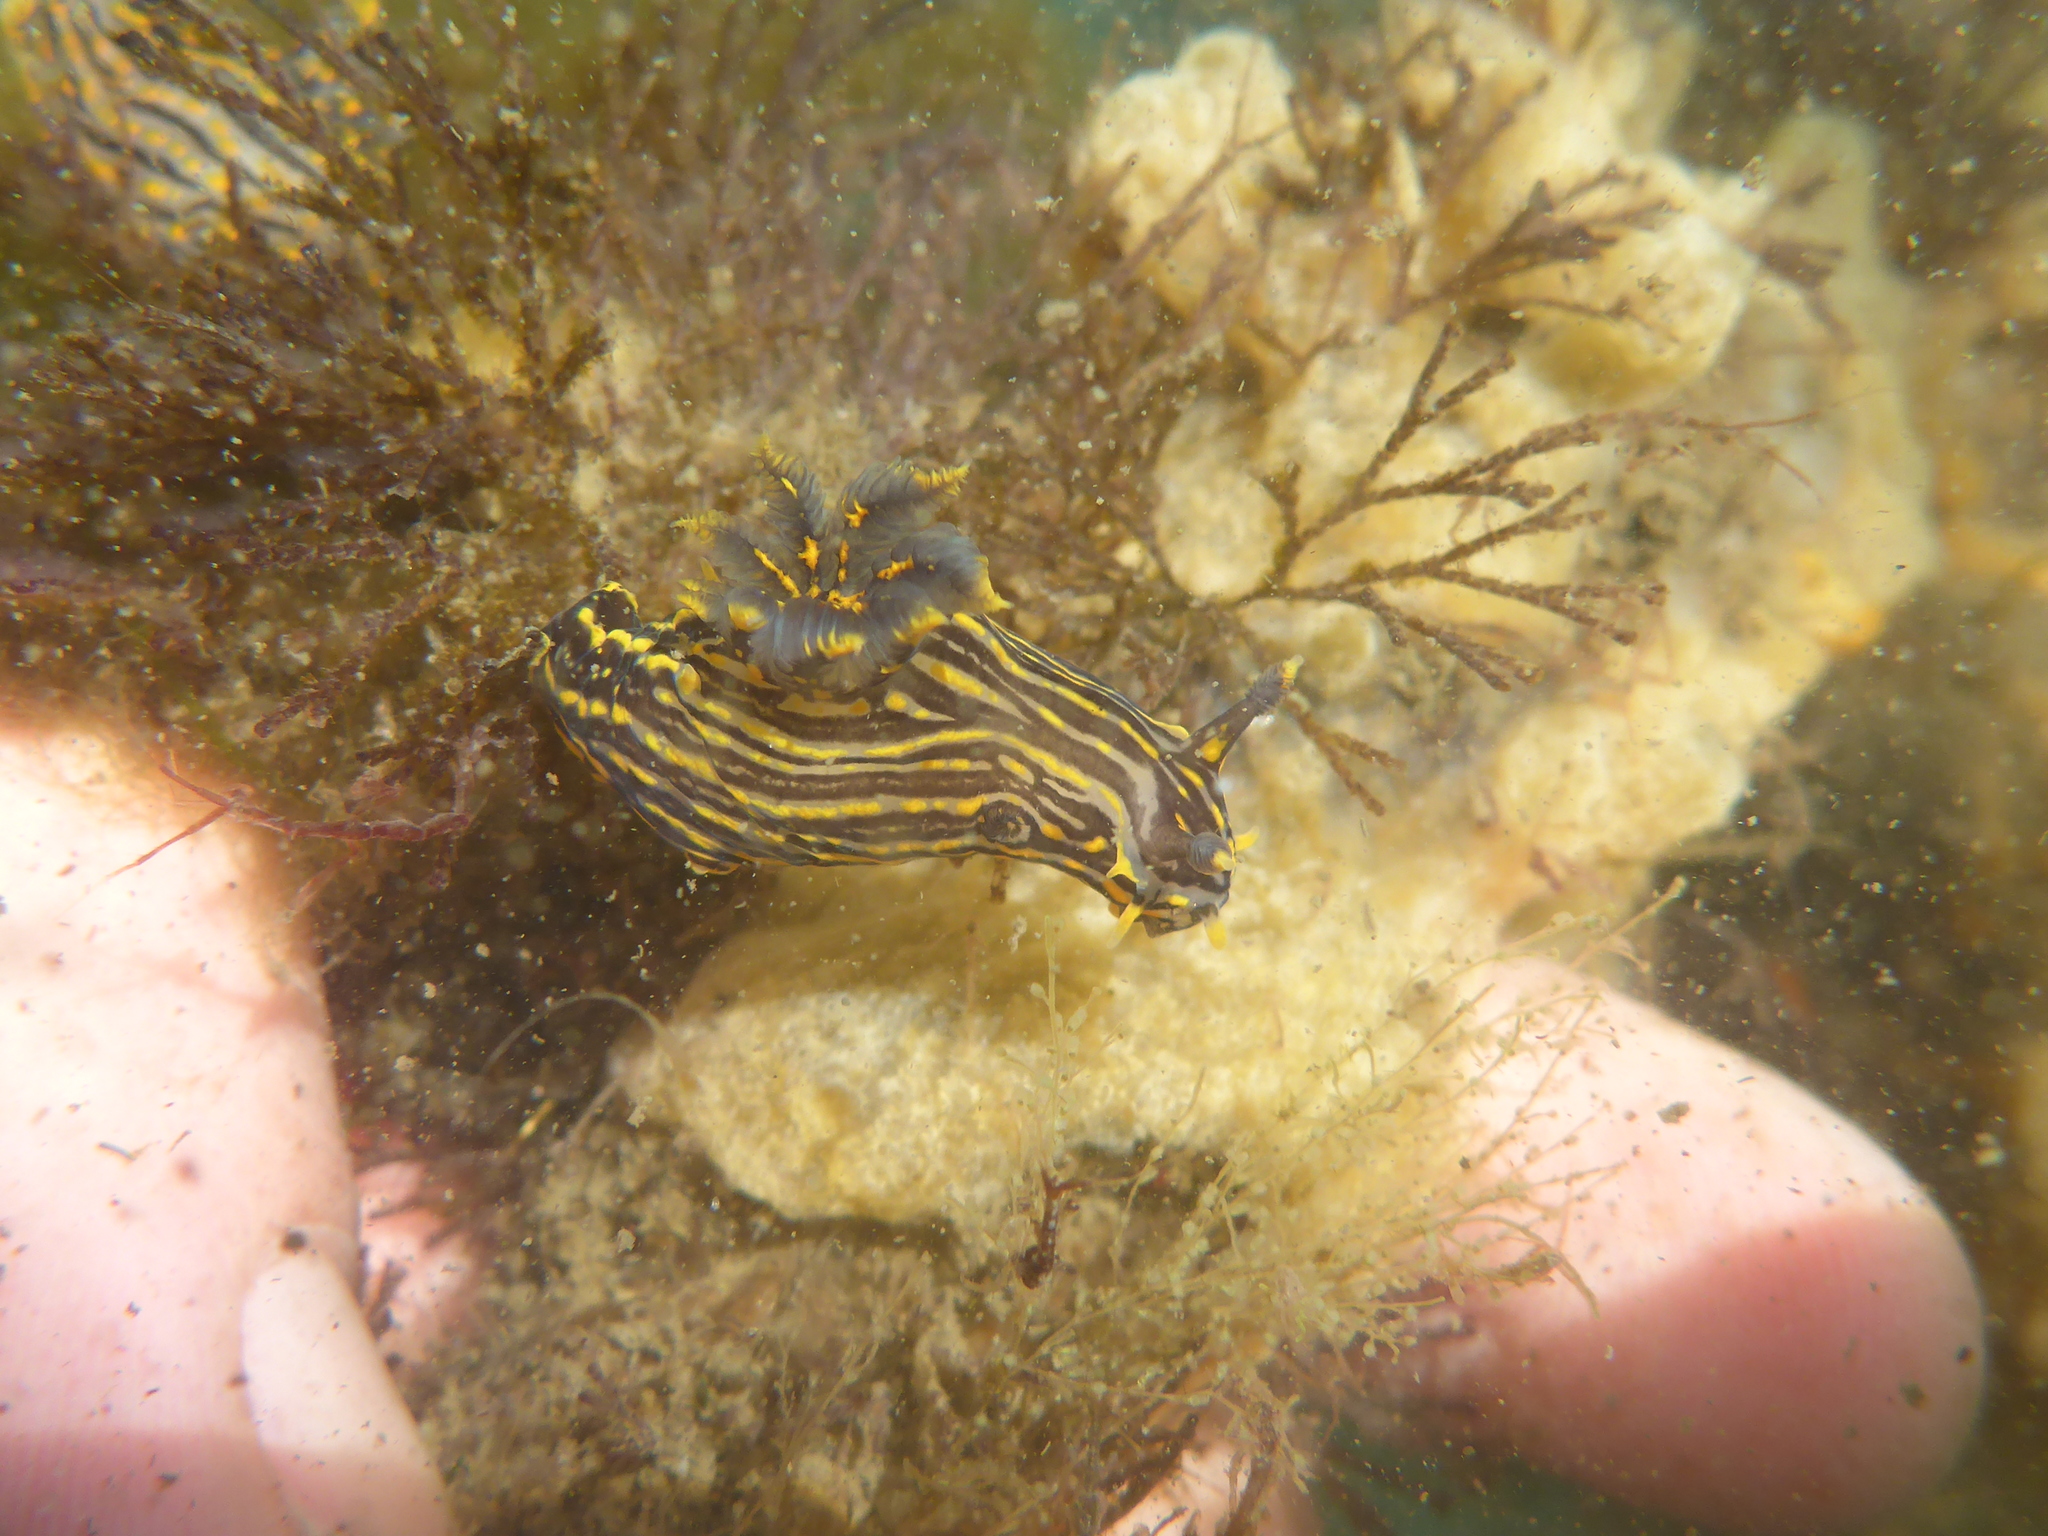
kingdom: Animalia
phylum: Mollusca
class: Gastropoda
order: Nudibranchia
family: Polyceridae
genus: Polycera
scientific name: Polycera atra
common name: Orange-spike polycera
